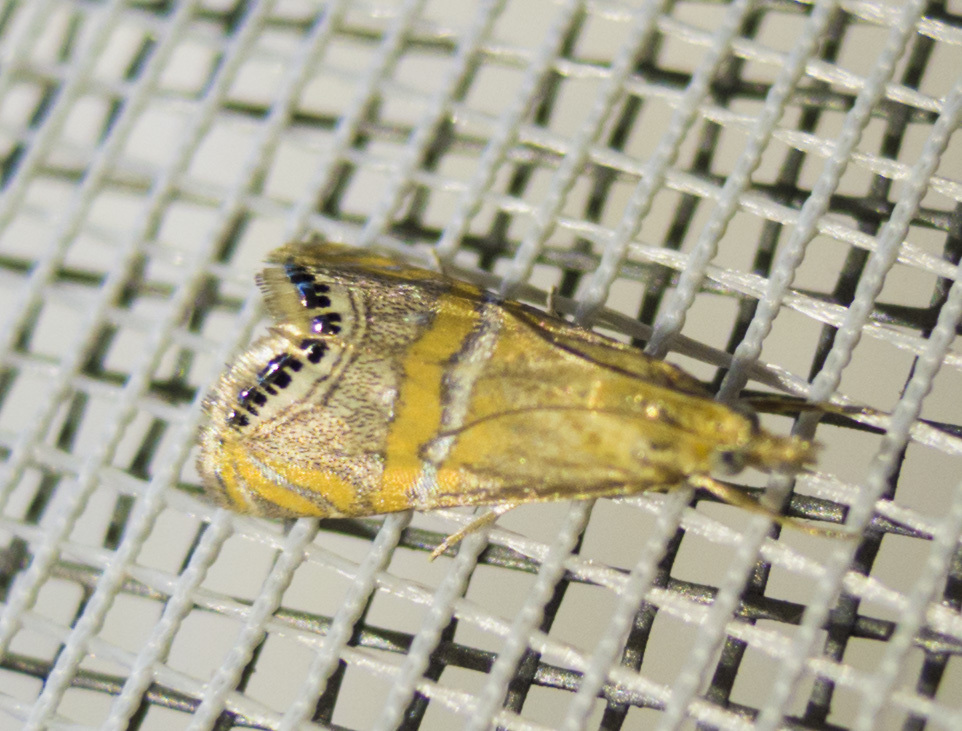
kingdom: Animalia
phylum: Arthropoda
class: Insecta
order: Lepidoptera
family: Crambidae
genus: Euchromius
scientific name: Euchromius bella
